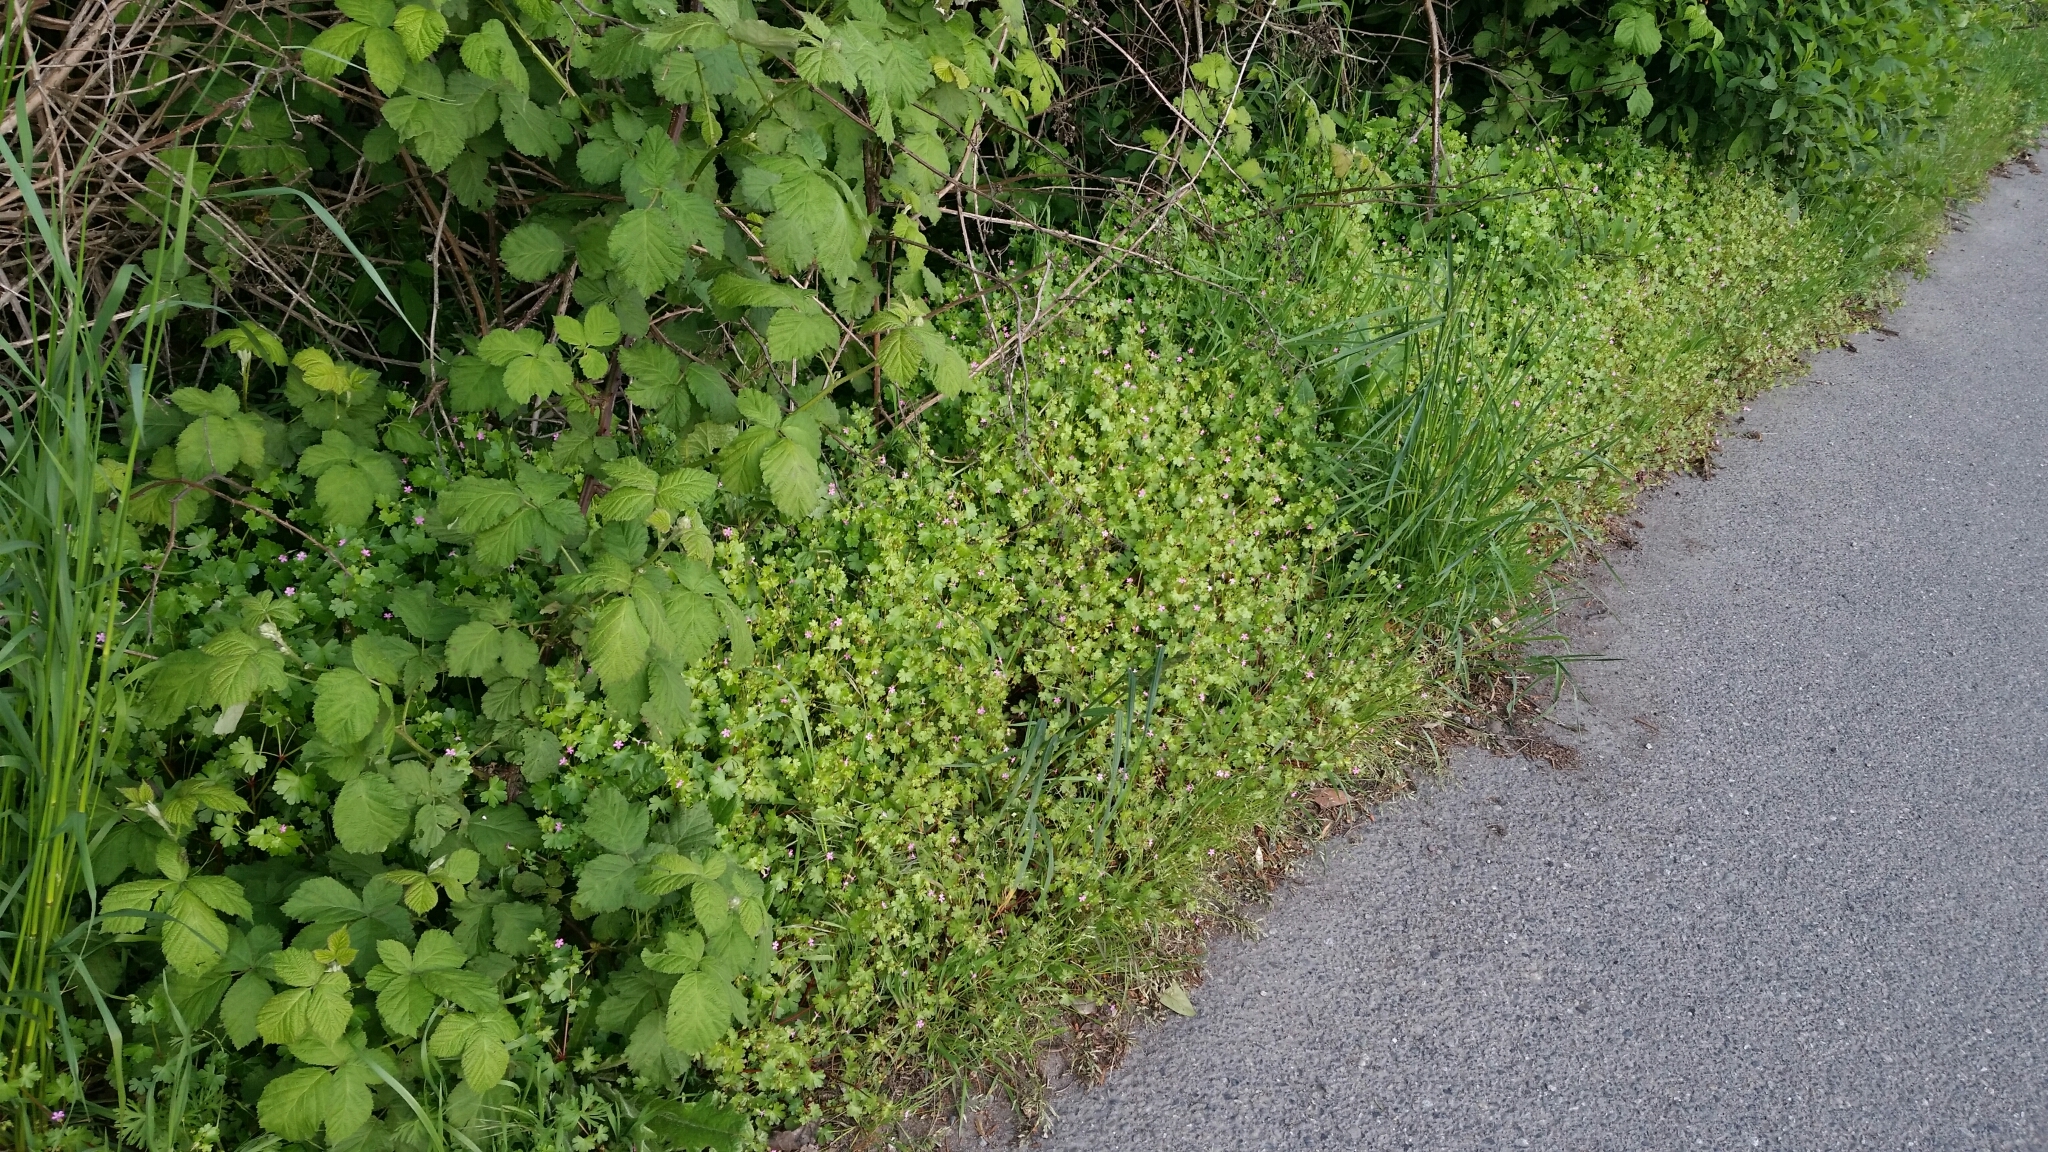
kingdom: Plantae
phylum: Tracheophyta
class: Magnoliopsida
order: Geraniales
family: Geraniaceae
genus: Geranium
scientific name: Geranium lucidum
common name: Shining crane's-bill
